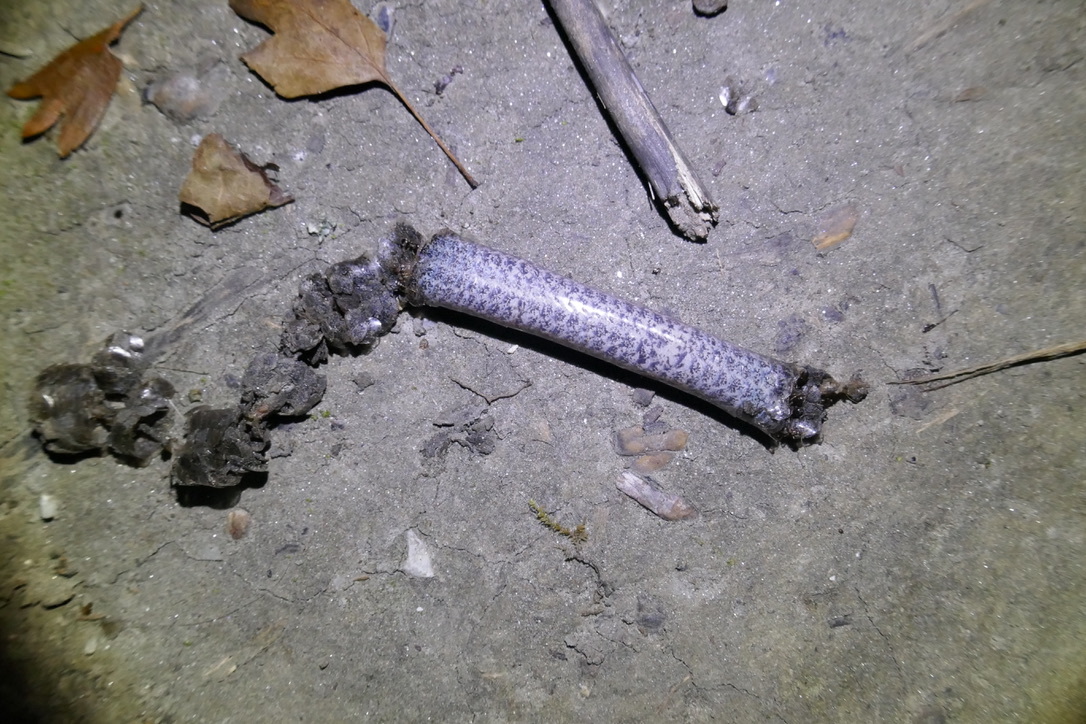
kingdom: Animalia
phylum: Chordata
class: Squamata
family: Anguidae
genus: Anguis
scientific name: Anguis fragilis
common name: Slow worm
